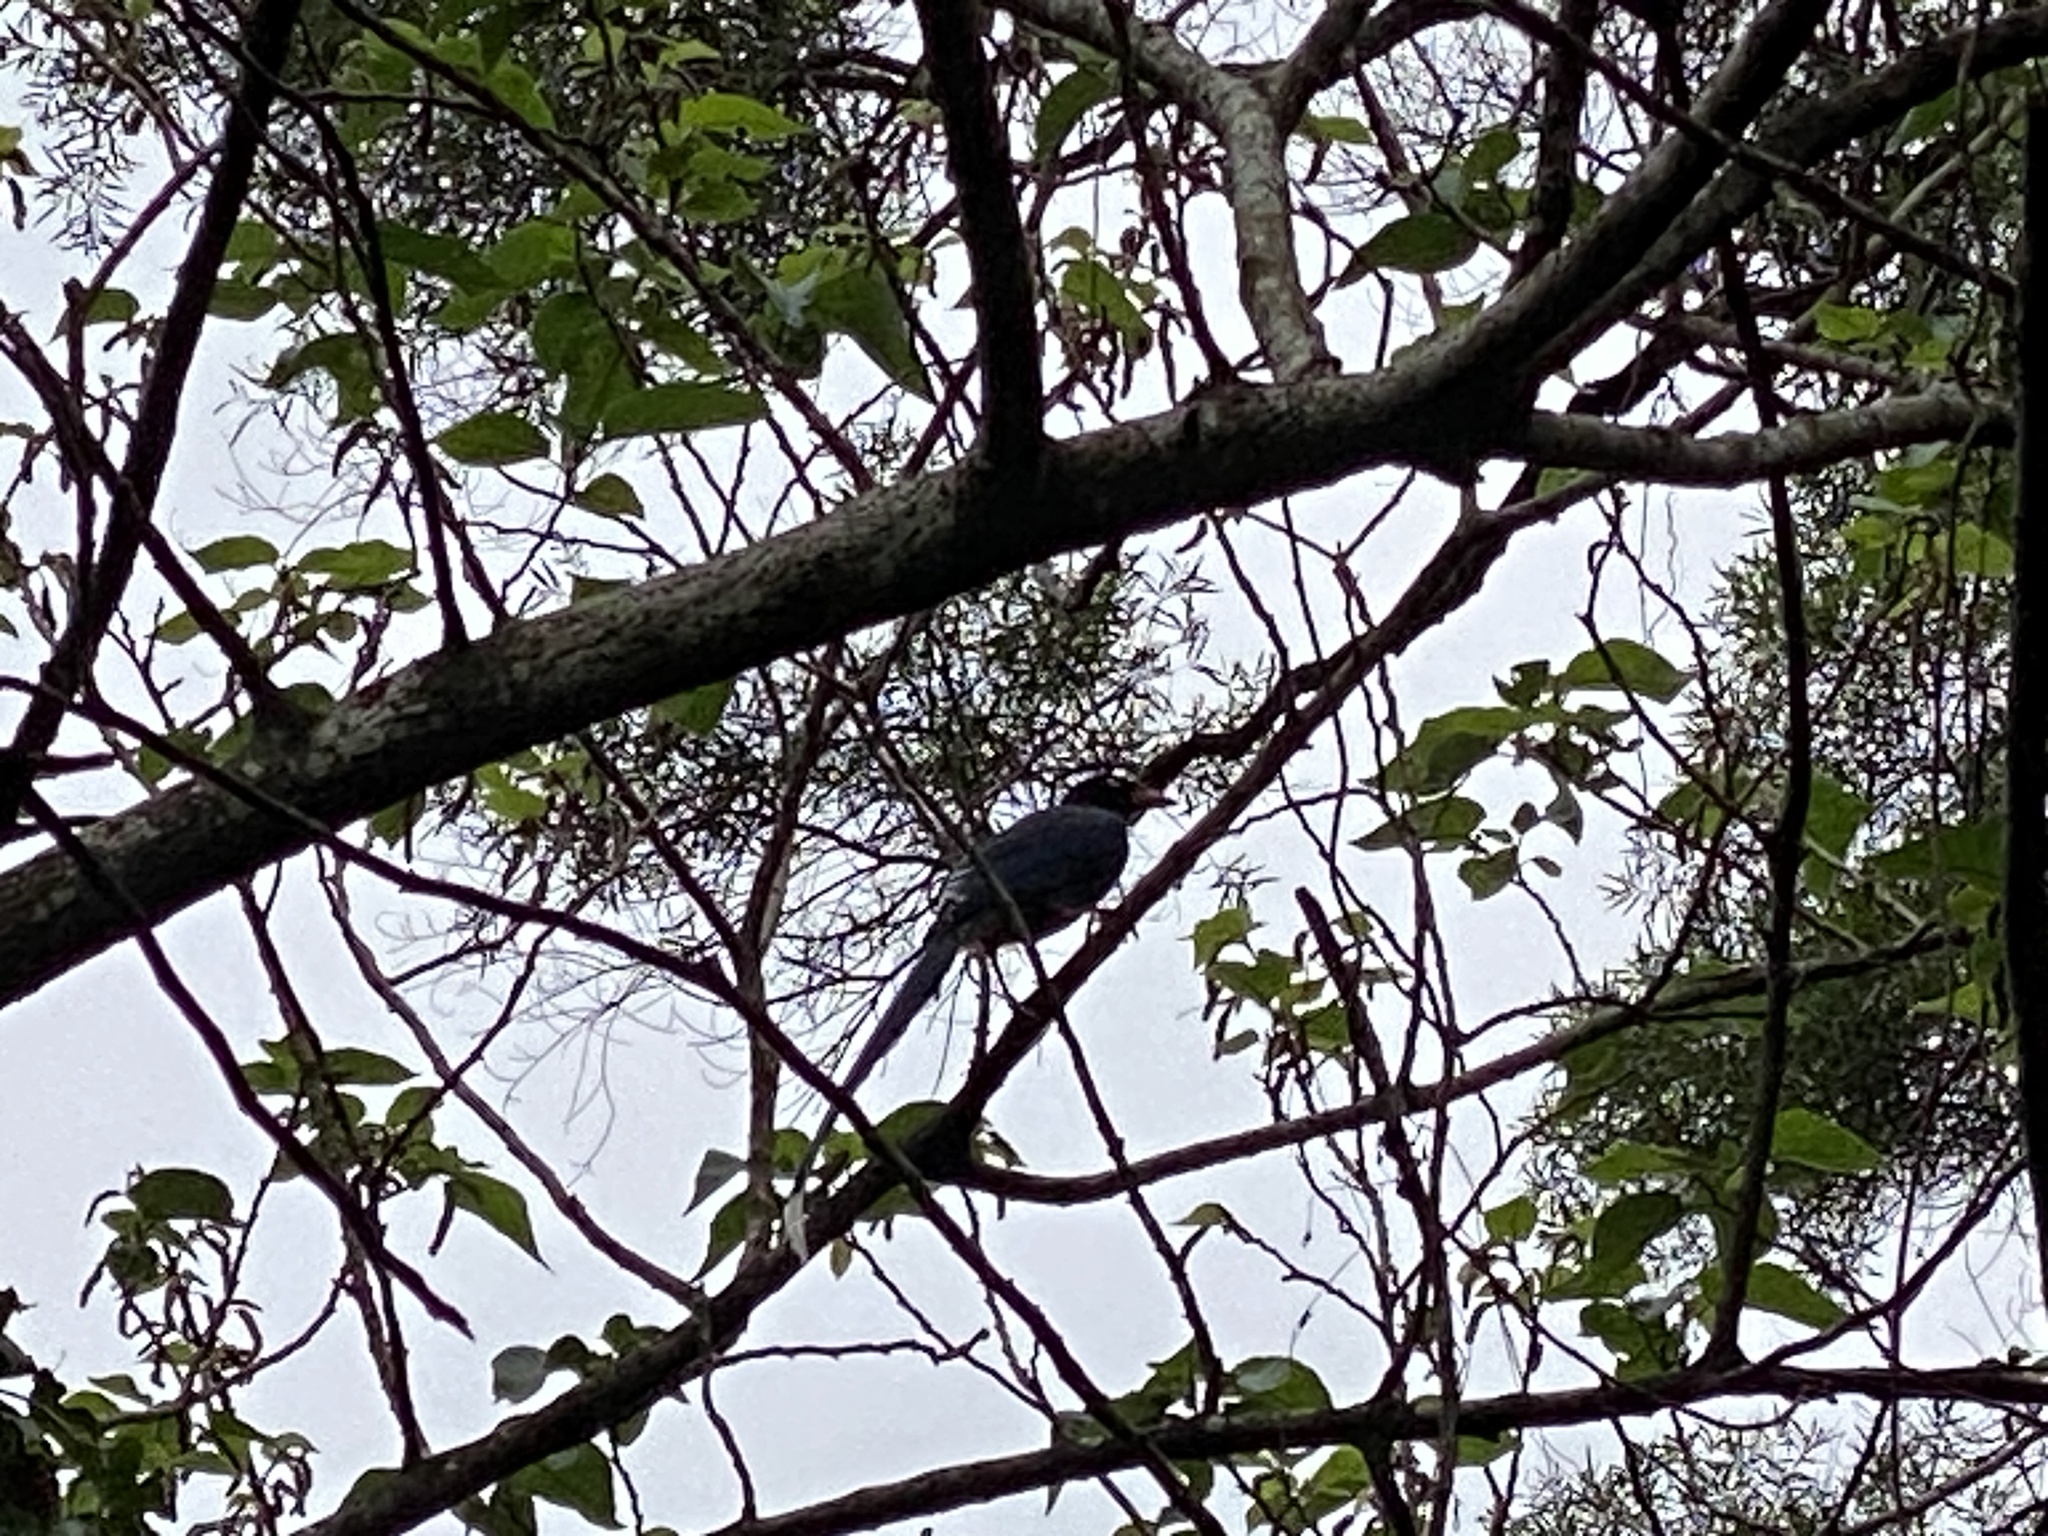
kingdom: Animalia
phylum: Chordata
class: Aves
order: Passeriformes
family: Corvidae
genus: Urocissa
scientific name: Urocissa caerulea
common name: Taiwan blue magpie
